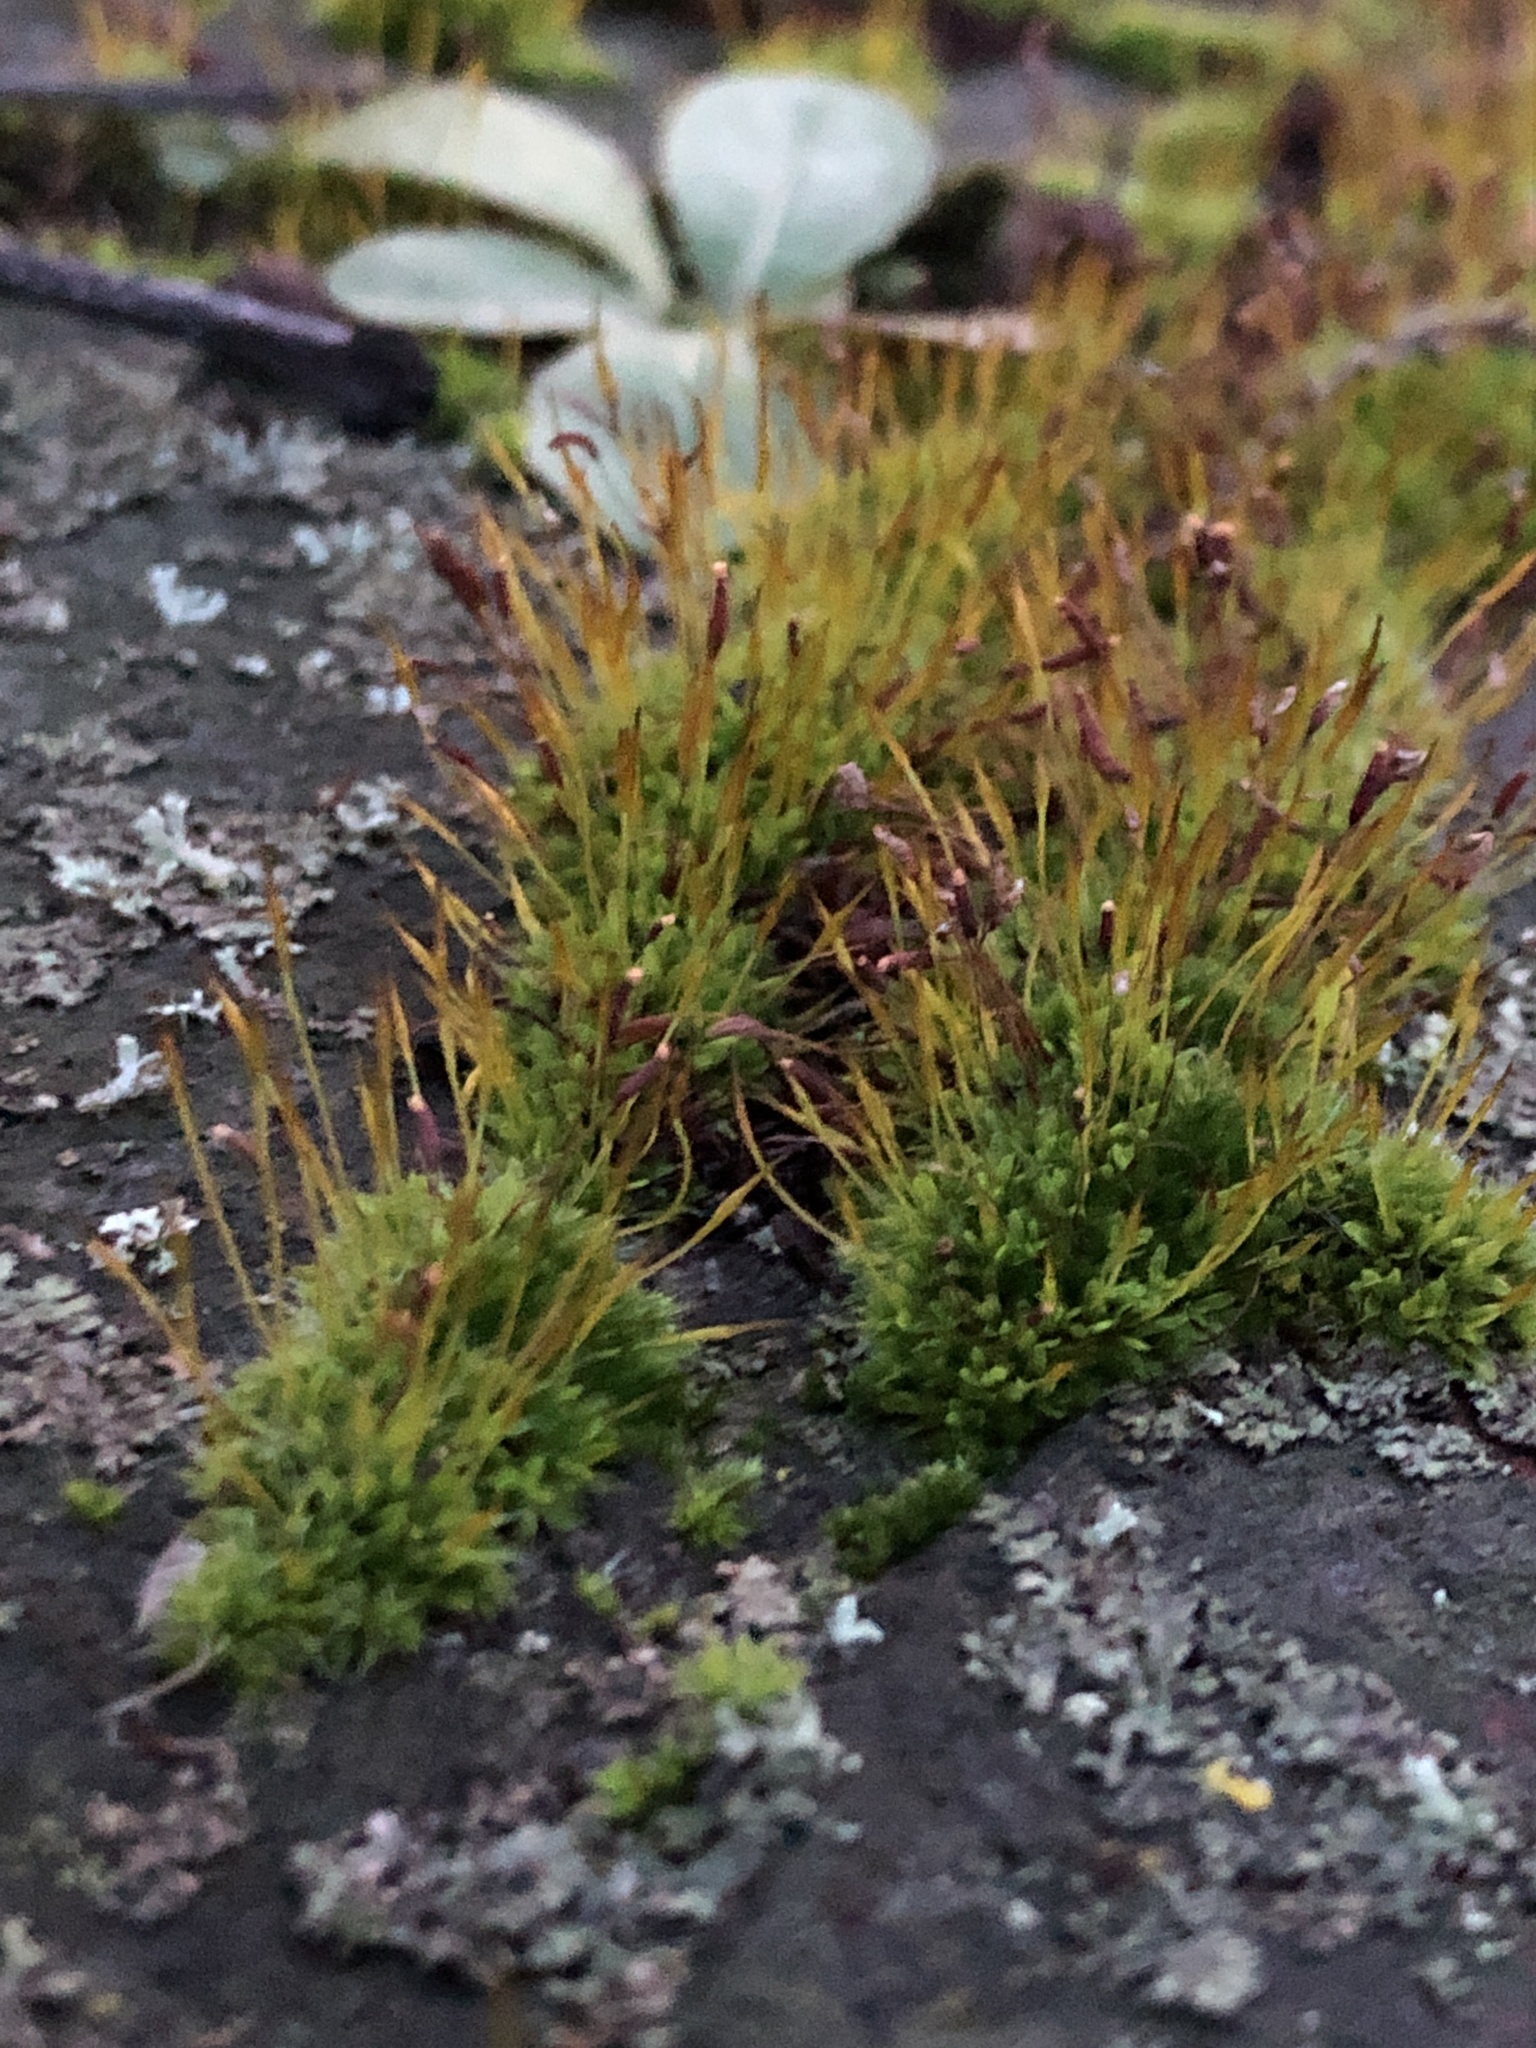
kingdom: Plantae
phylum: Bryophyta
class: Bryopsida
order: Pottiales
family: Pottiaceae
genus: Tortula
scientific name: Tortula muralis
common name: Wall screw-moss
